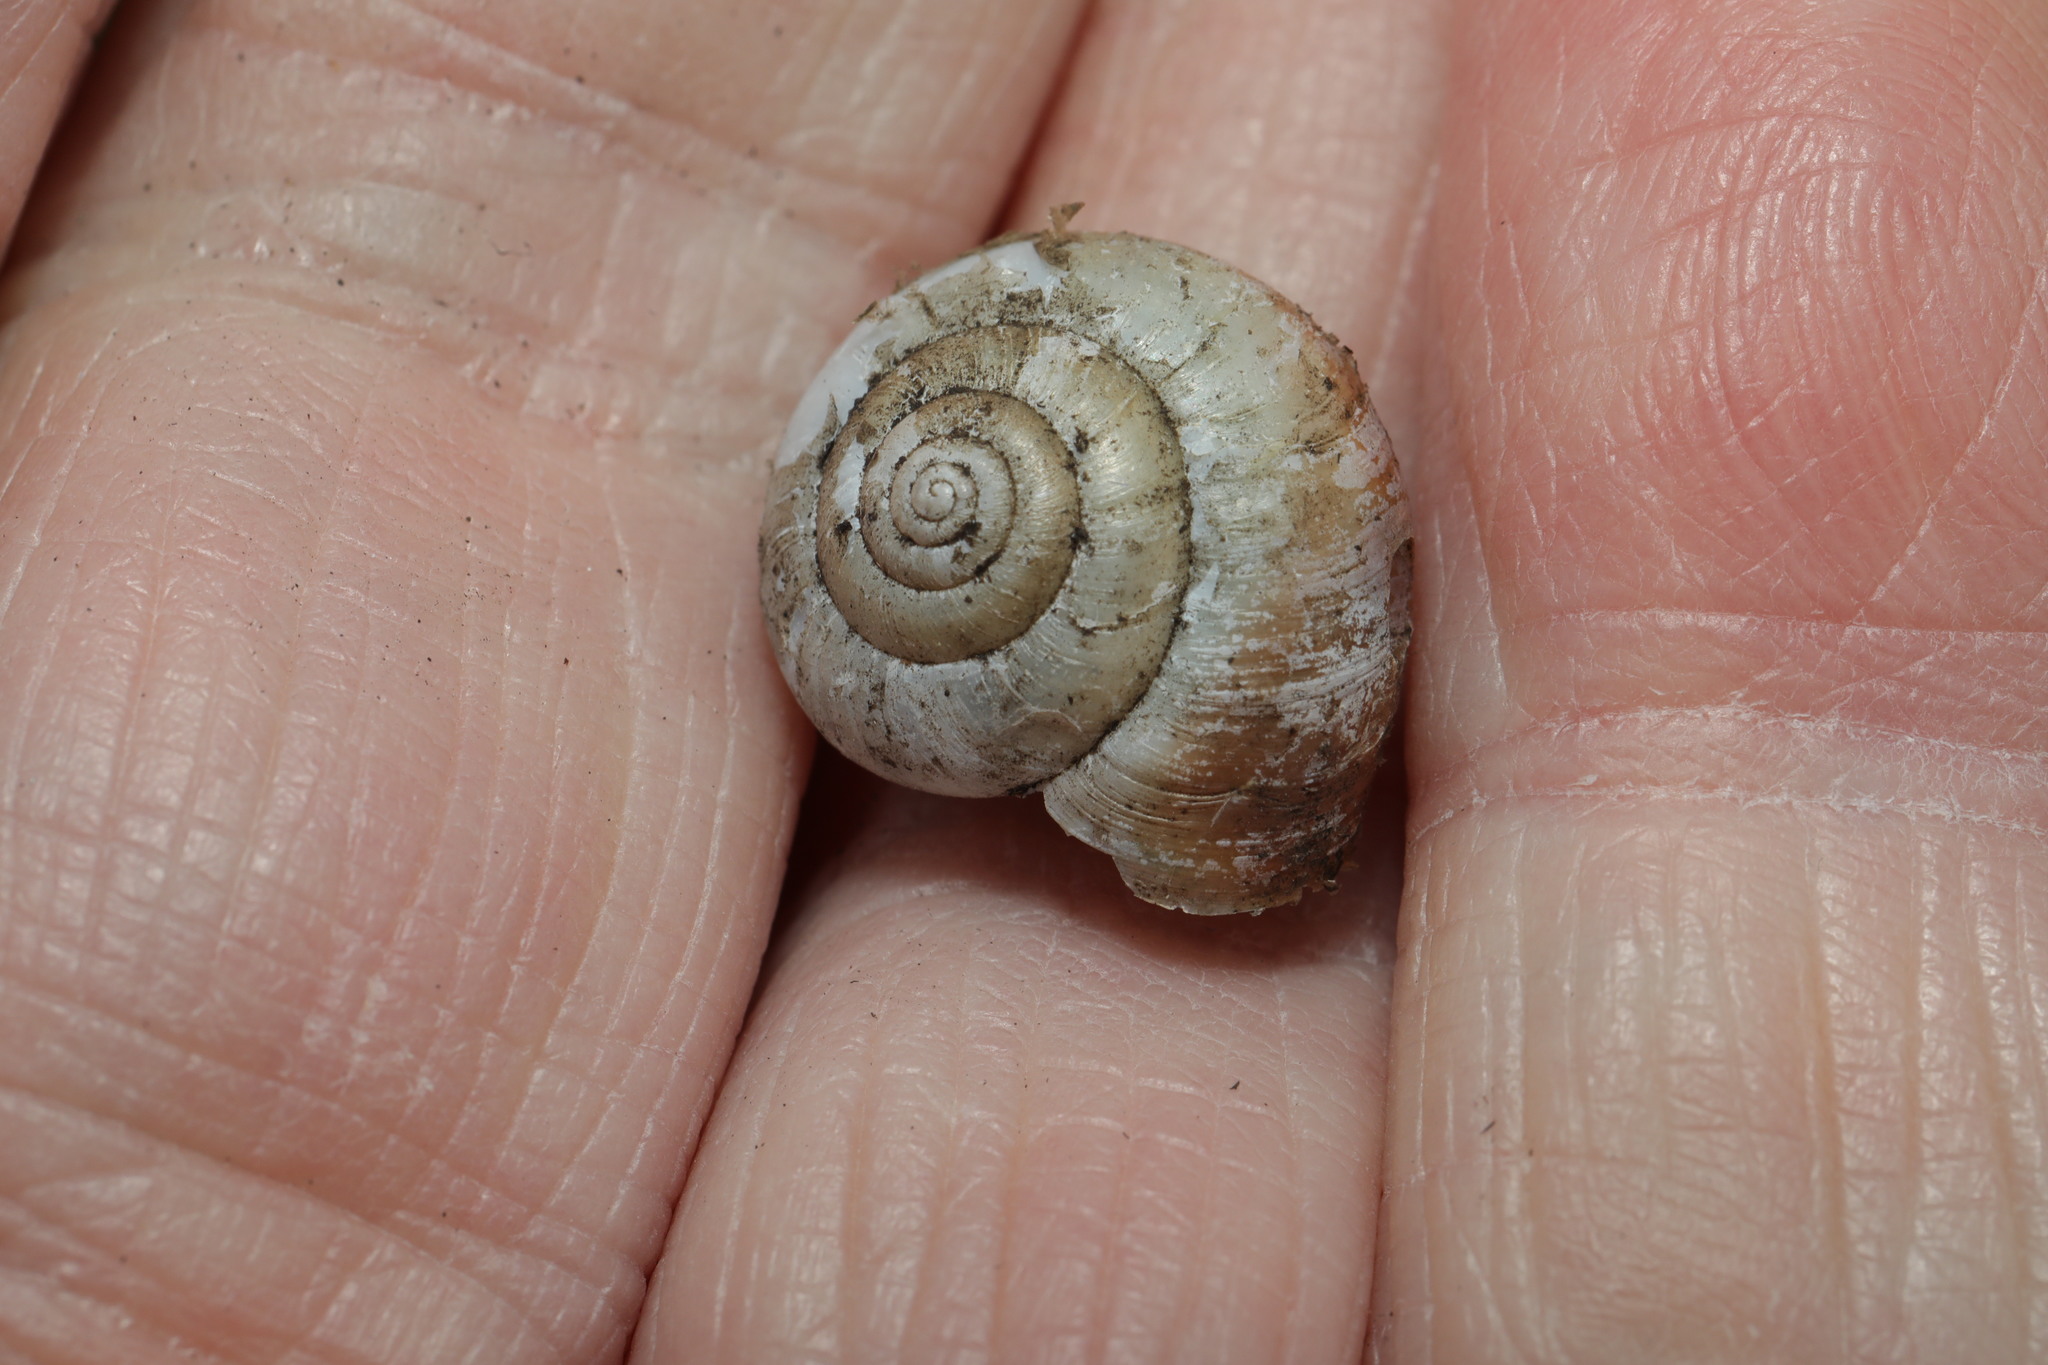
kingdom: Animalia
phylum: Mollusca
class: Gastropoda
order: Stylommatophora
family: Hygromiidae
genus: Monacha
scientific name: Monacha cantiana
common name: Kentish snail
